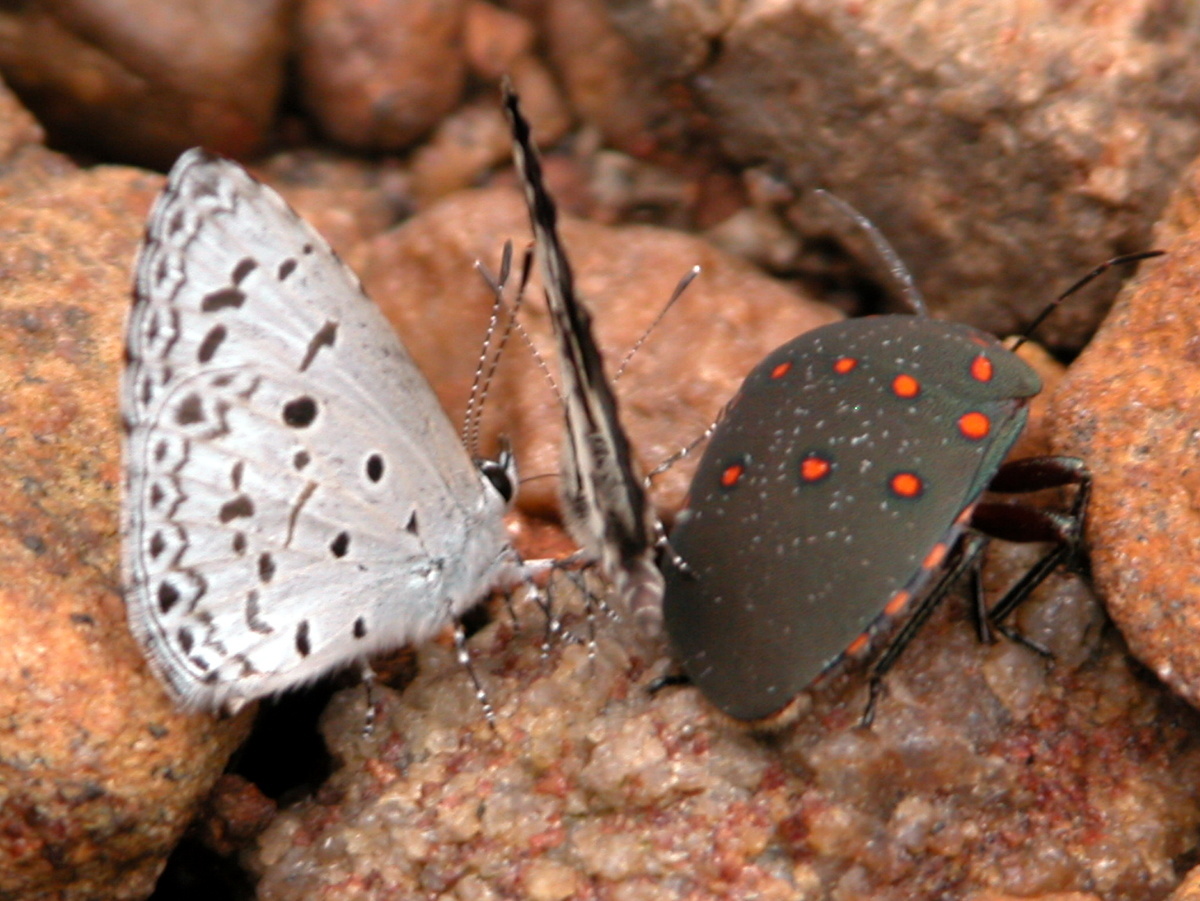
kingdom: Animalia
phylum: Arthropoda
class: Insecta
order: Hemiptera
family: Scutelleridae
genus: Solenosthedium
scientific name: Solenosthedium
